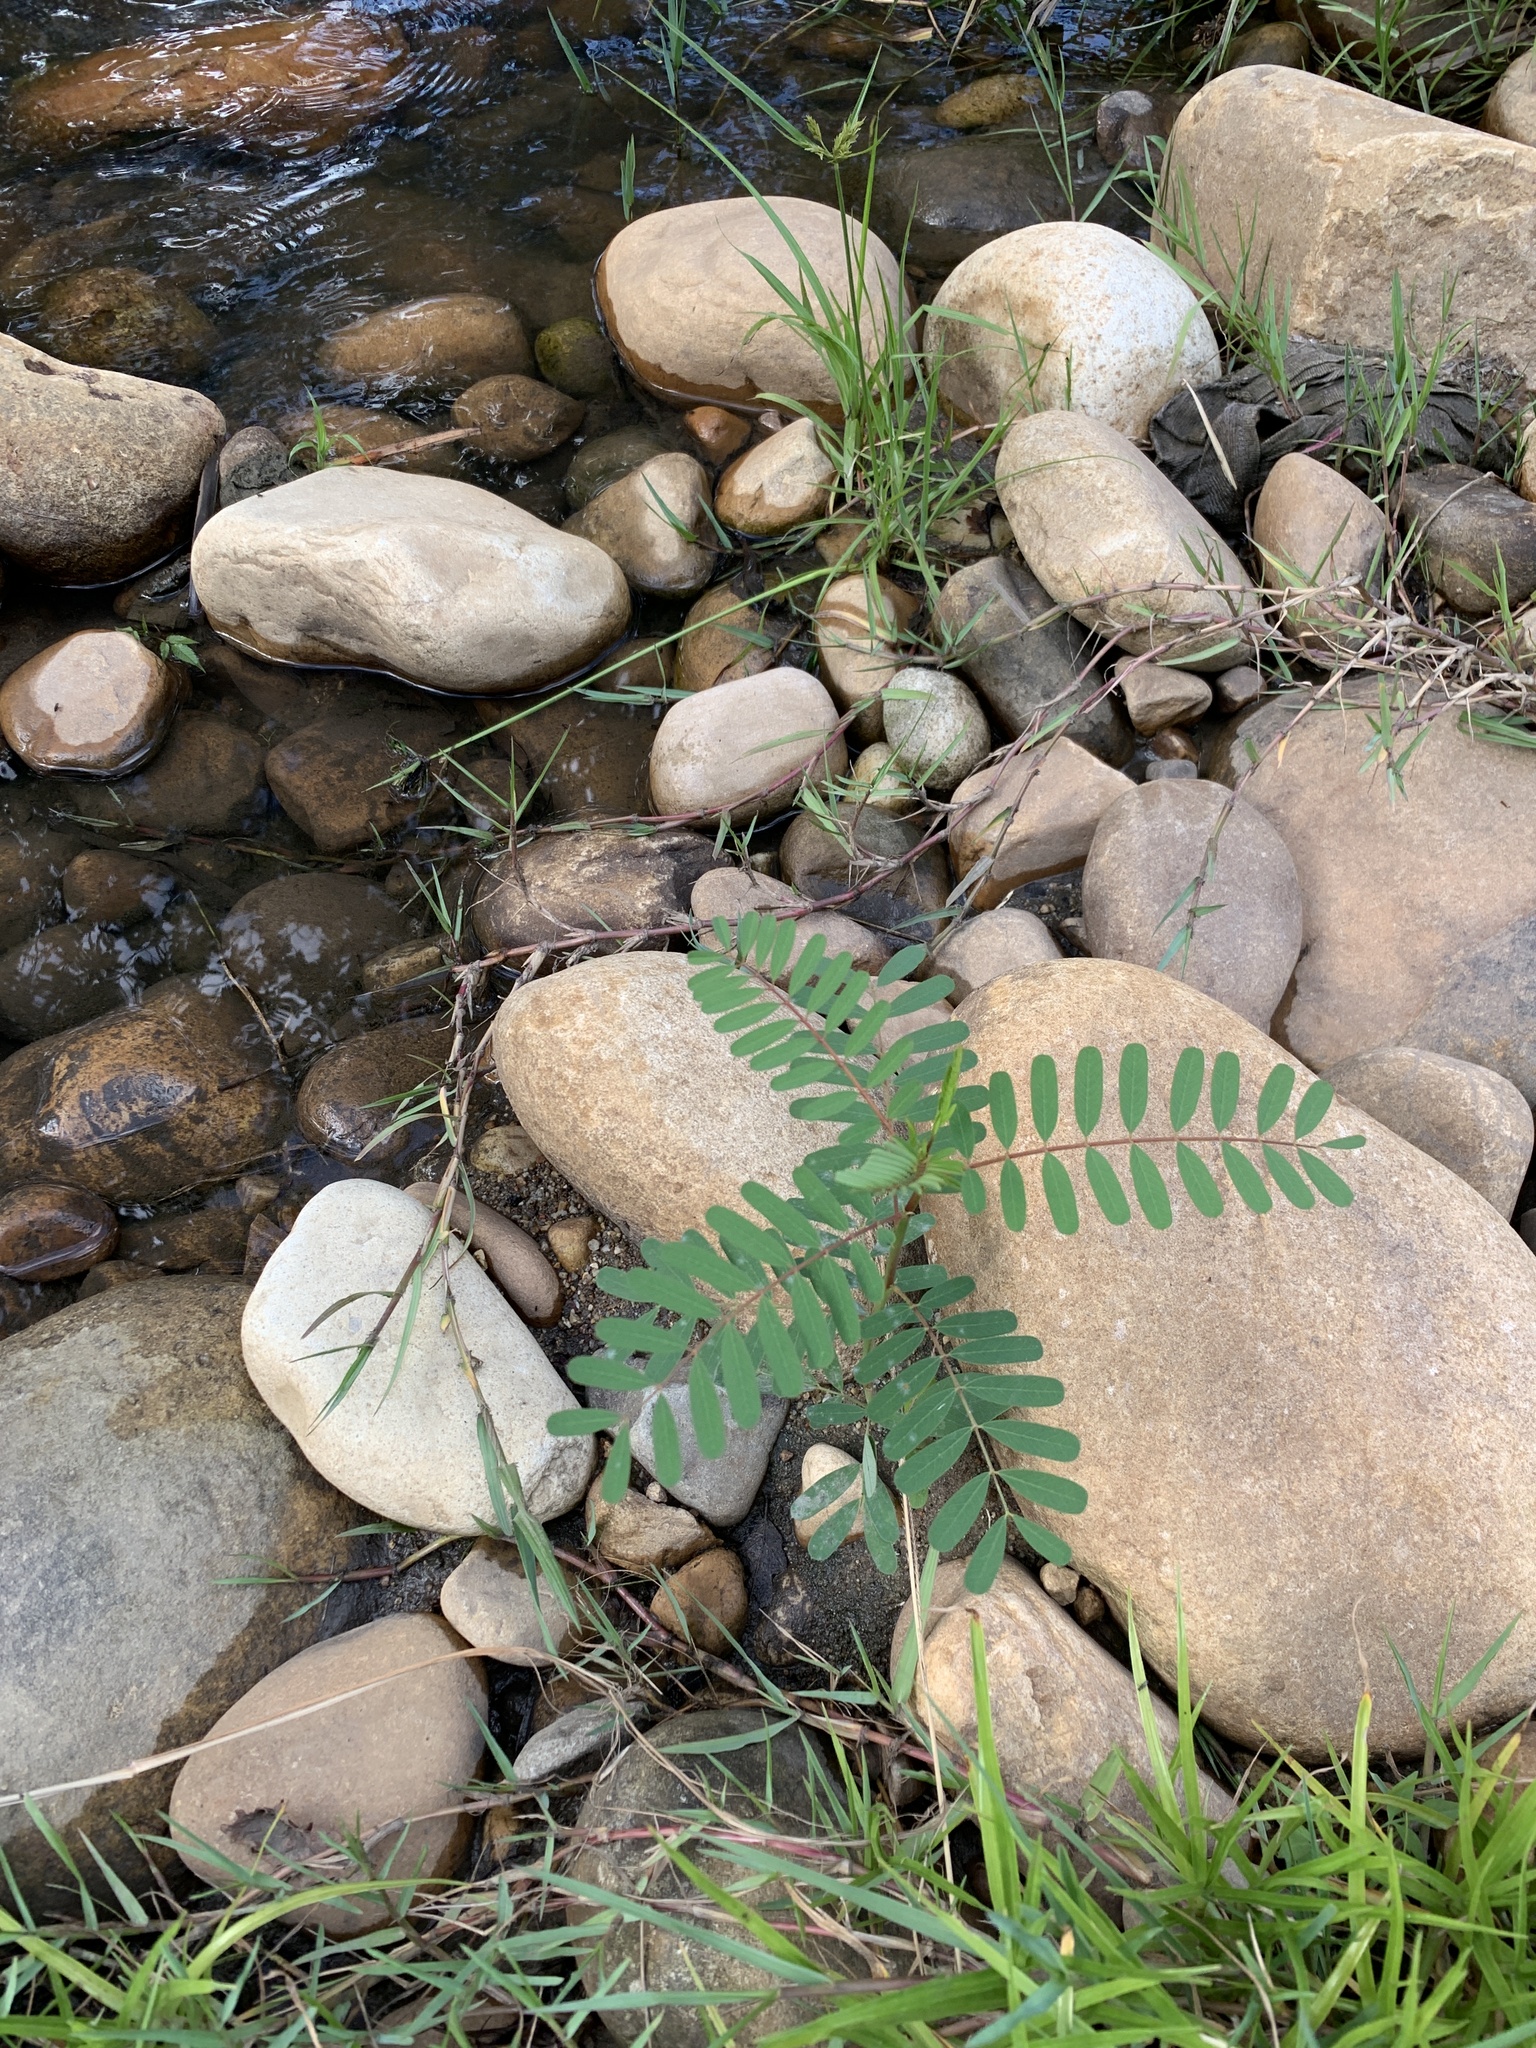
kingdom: Plantae
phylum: Tracheophyta
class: Magnoliopsida
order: Fabales
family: Fabaceae
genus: Sesbania
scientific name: Sesbania punicea
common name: Rattlebox
